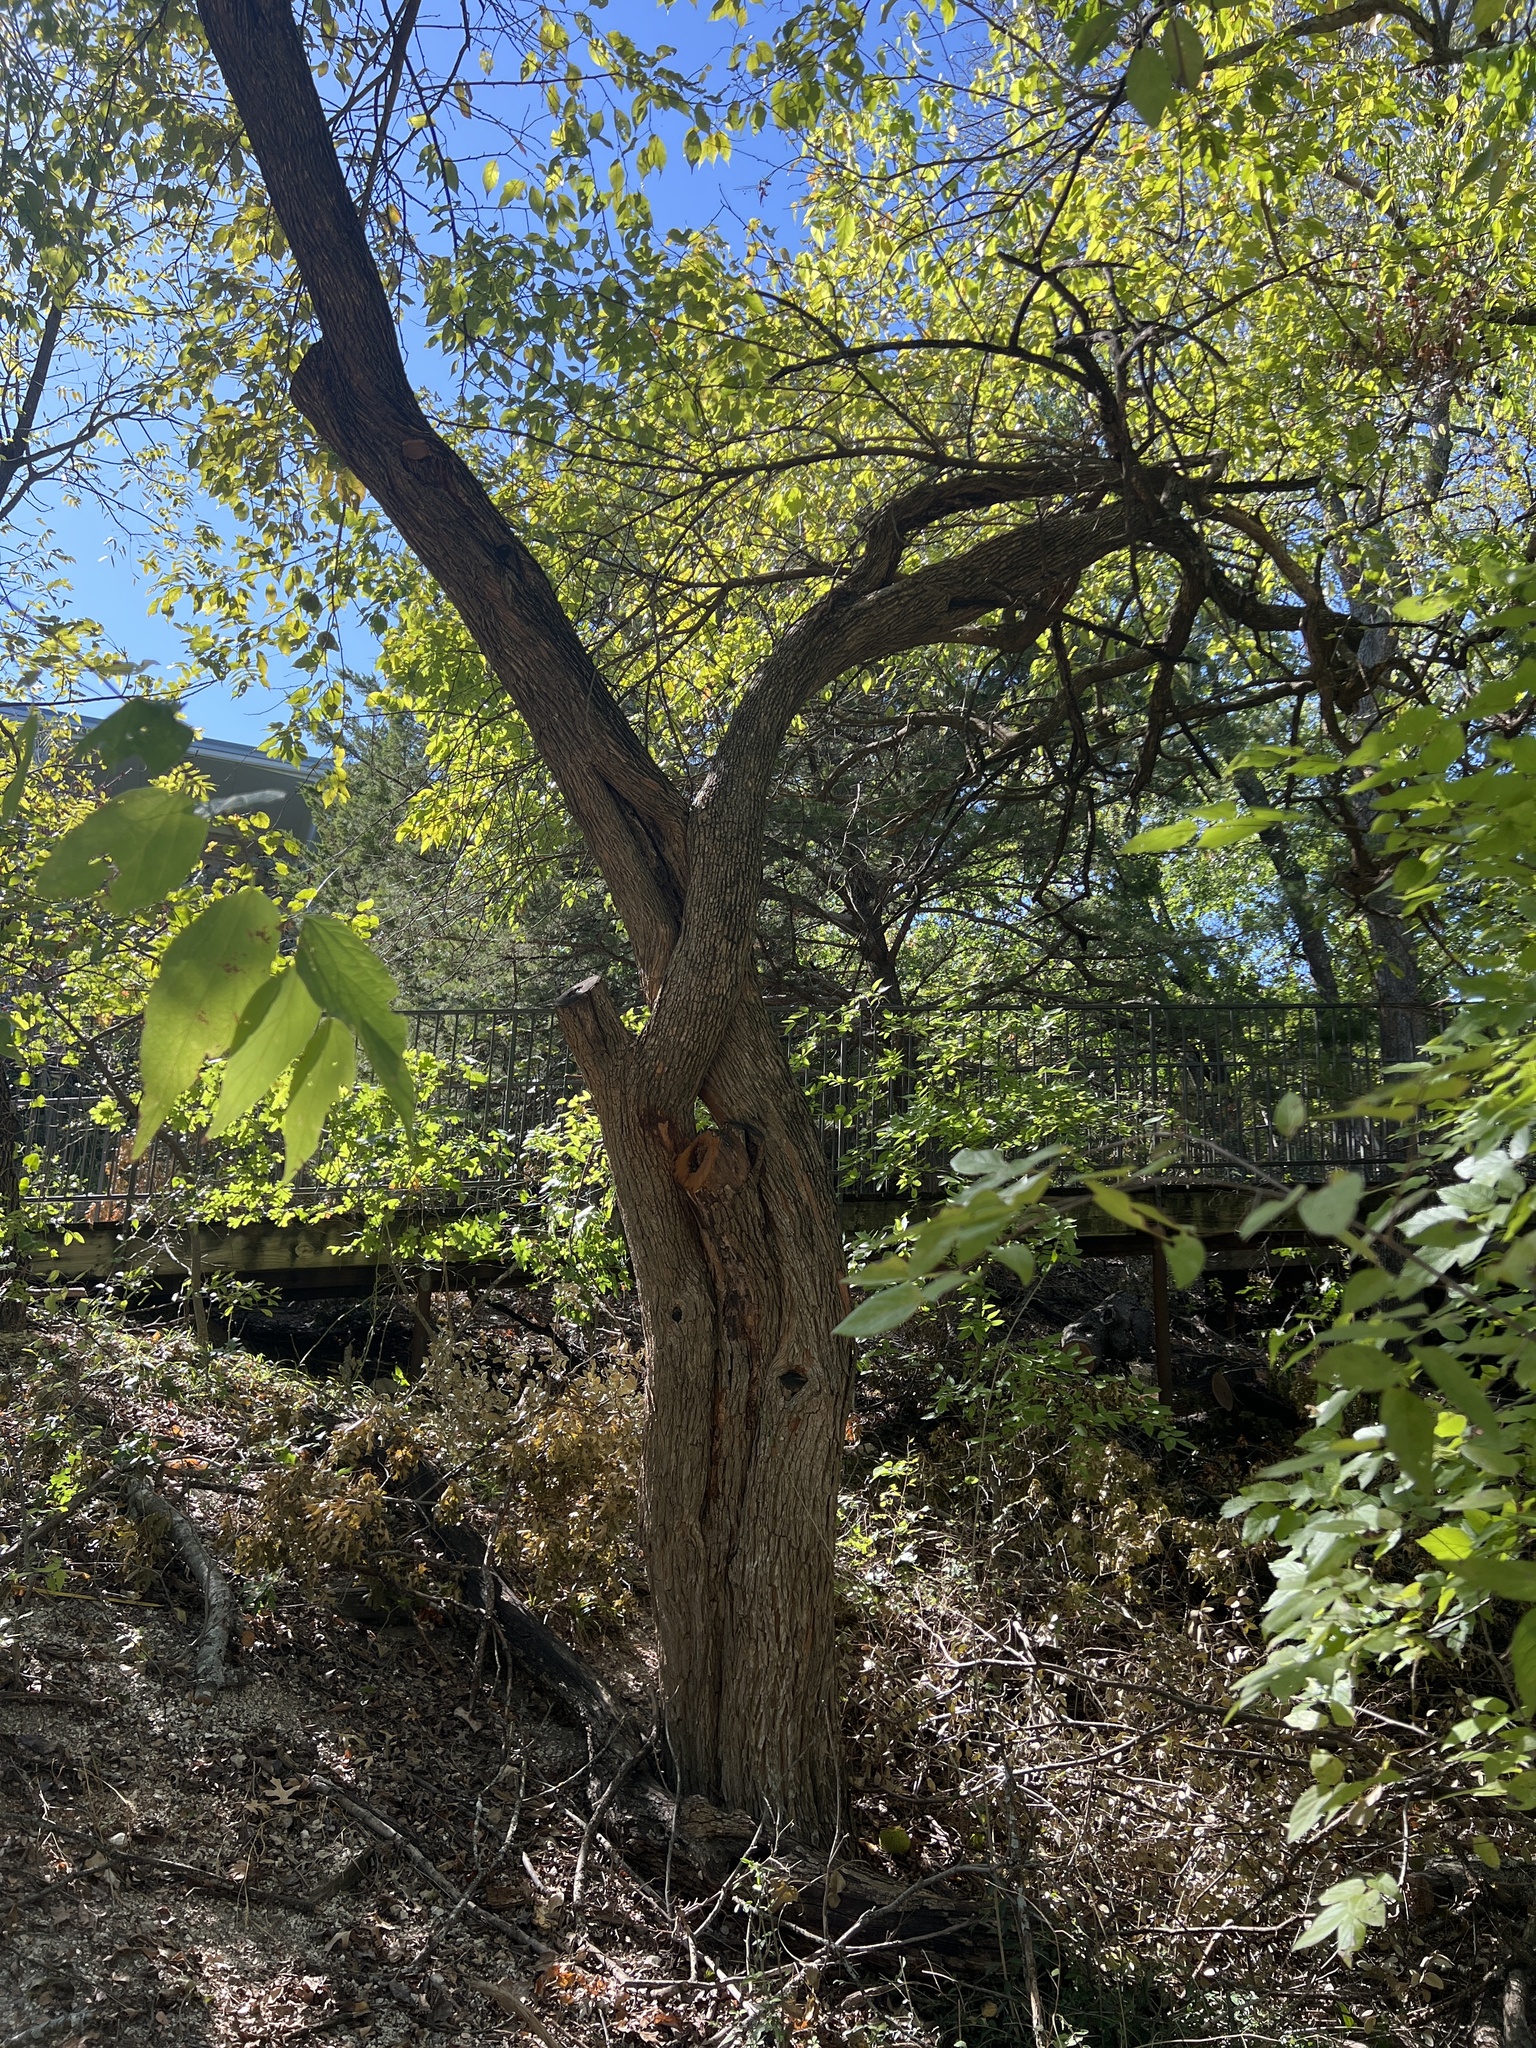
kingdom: Plantae
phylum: Tracheophyta
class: Magnoliopsida
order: Rosales
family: Moraceae
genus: Maclura
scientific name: Maclura pomifera
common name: Osage-orange
